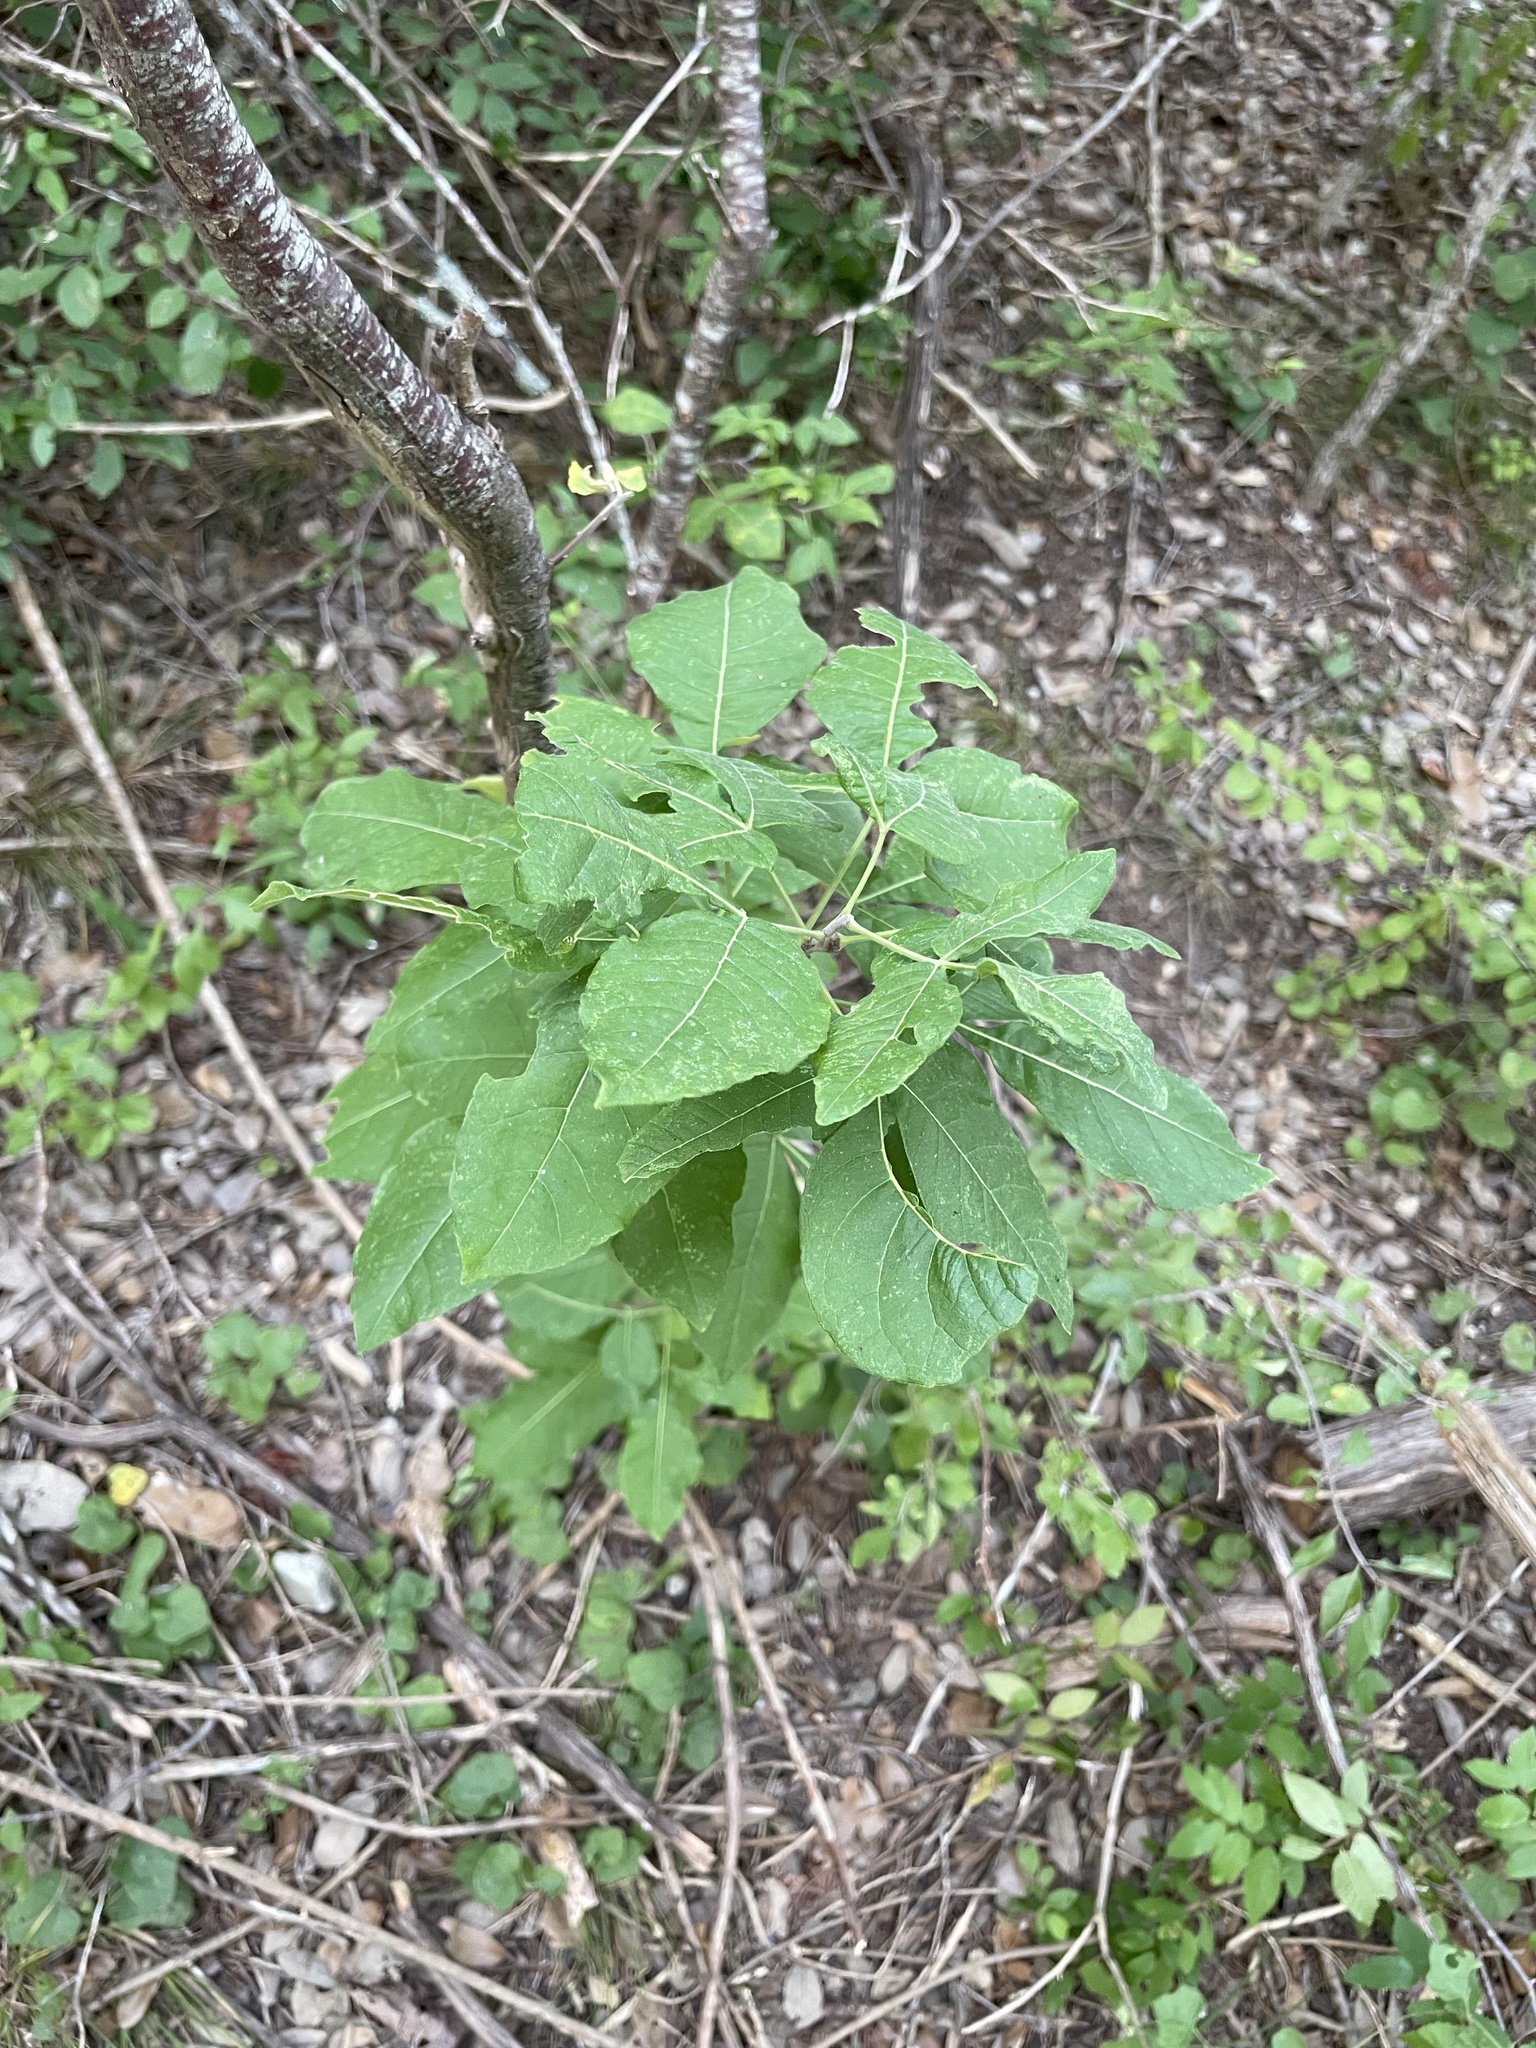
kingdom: Plantae
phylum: Tracheophyta
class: Magnoliopsida
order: Sapindales
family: Rutaceae
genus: Ptelea
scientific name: Ptelea trifoliata
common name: Common hop-tree
